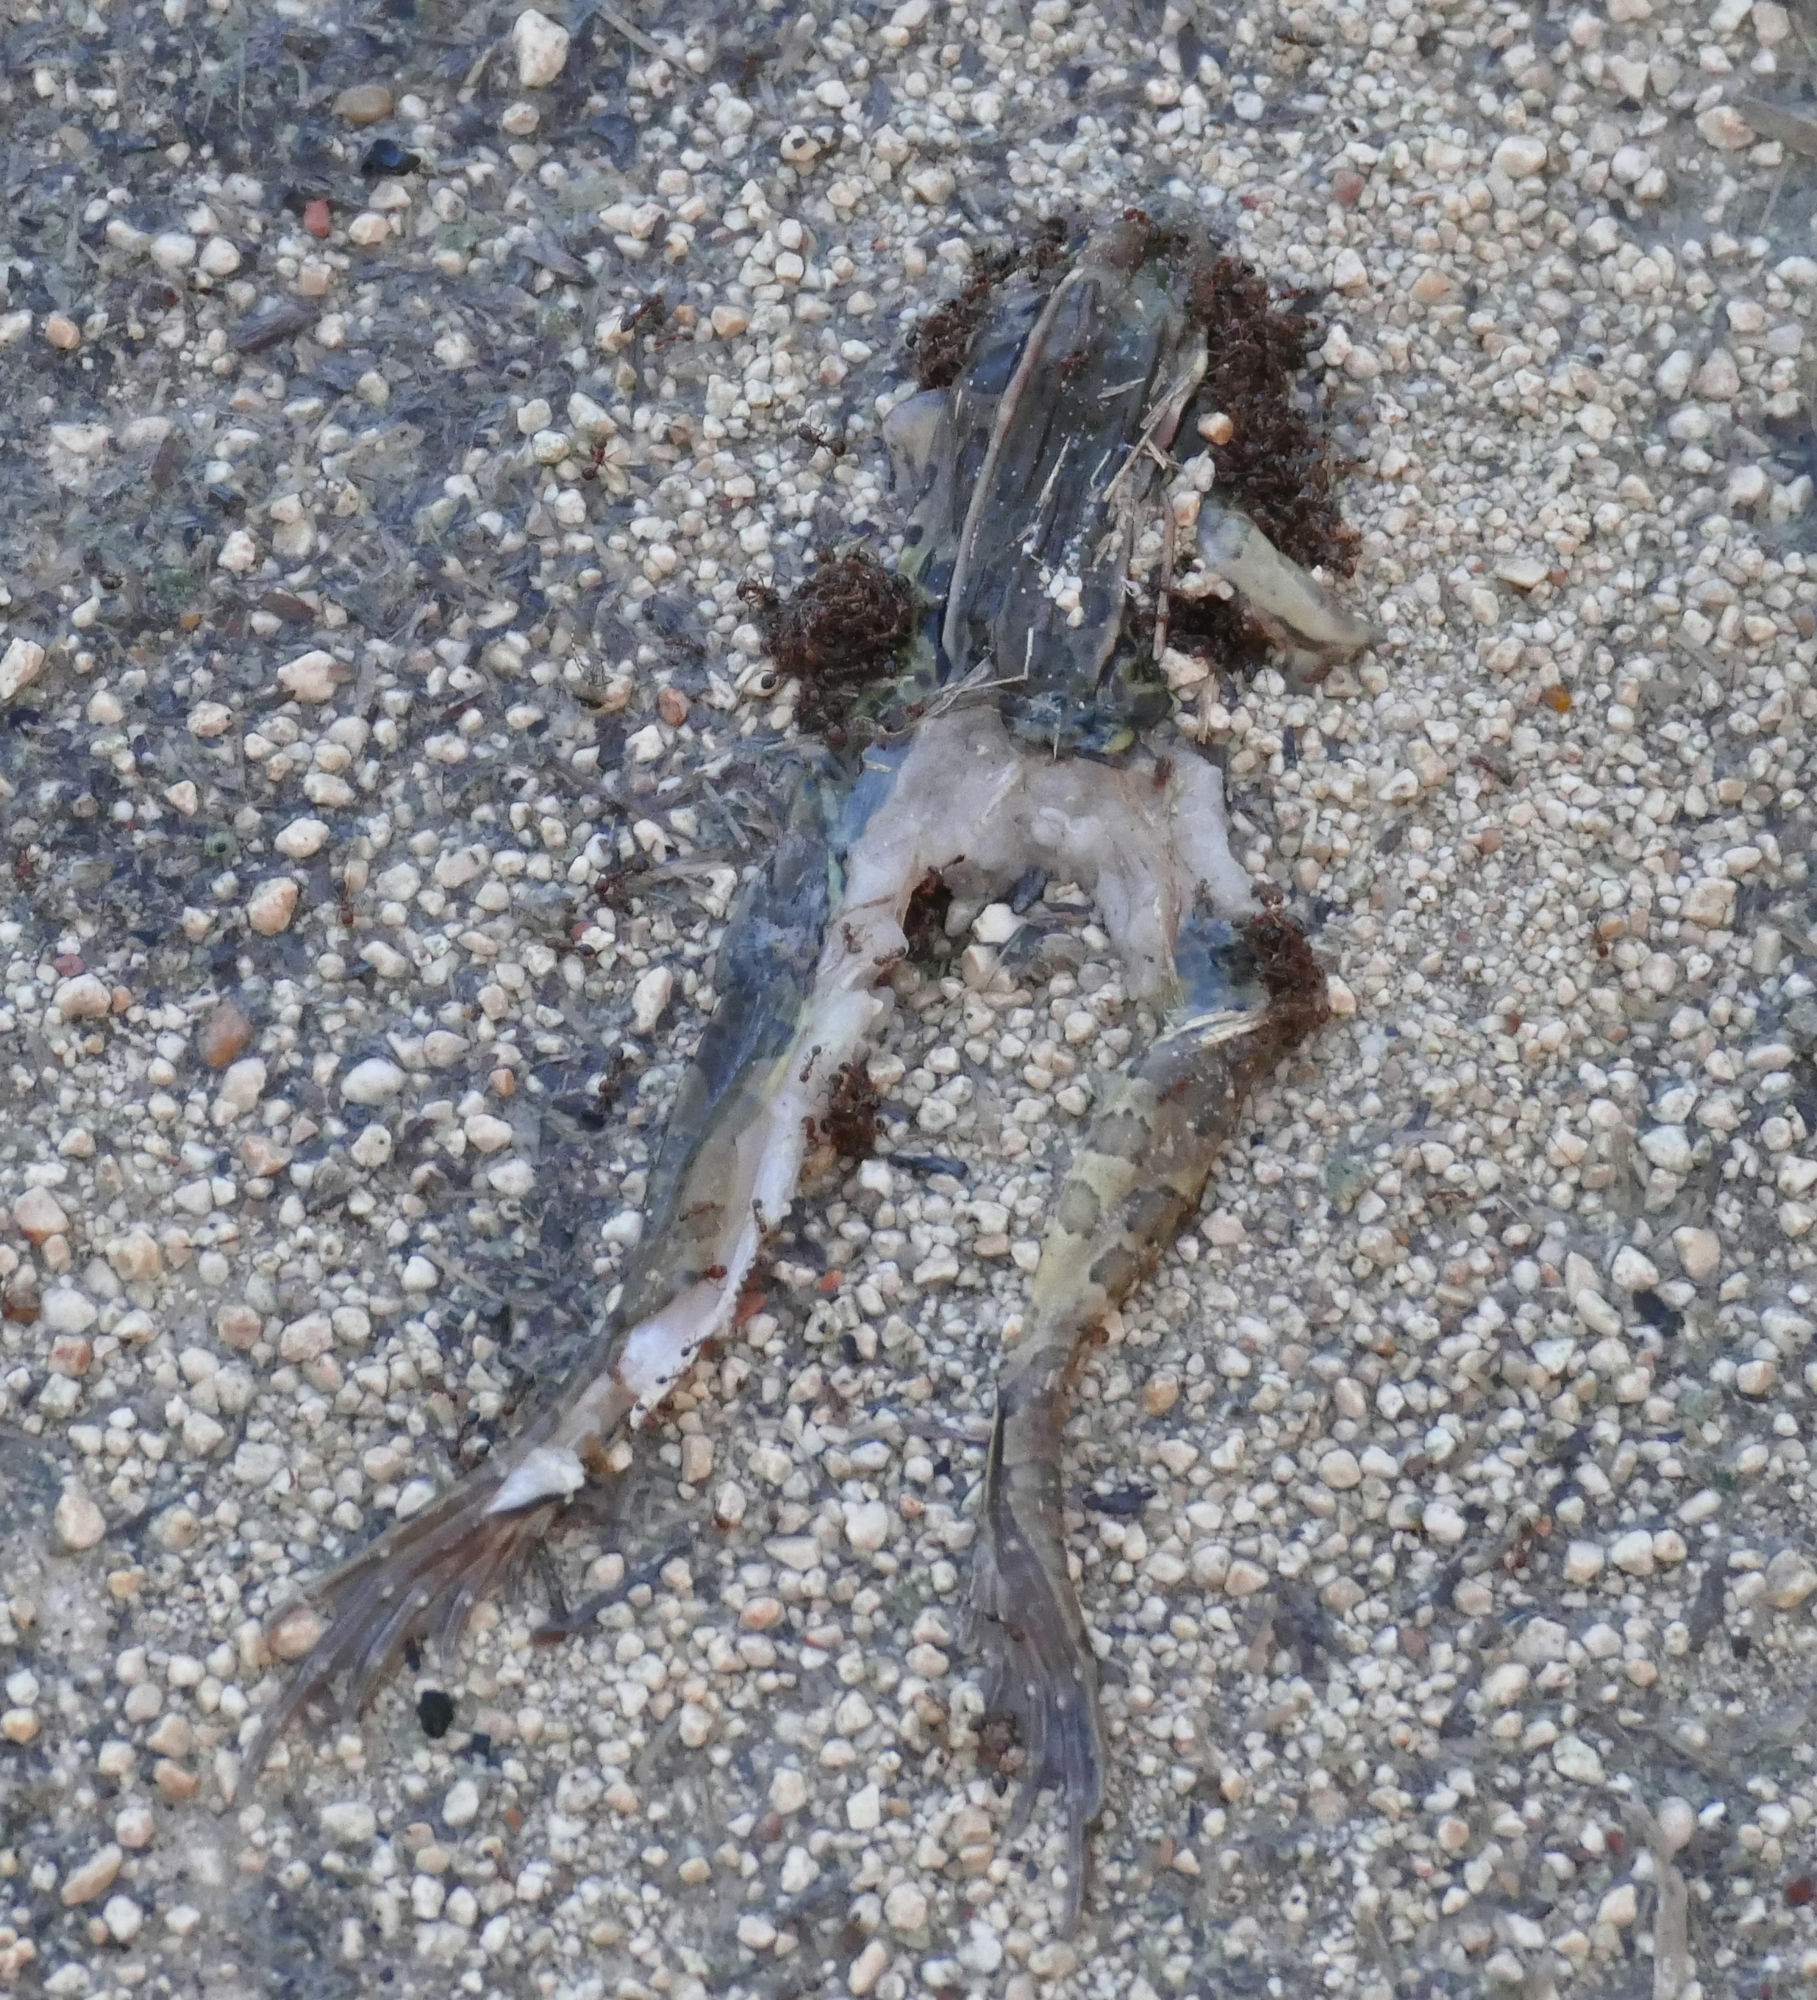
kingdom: Animalia
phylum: Chordata
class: Amphibia
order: Anura
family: Ranidae
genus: Lithobates
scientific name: Lithobates sphenocephalus
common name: Southern leopard frog
